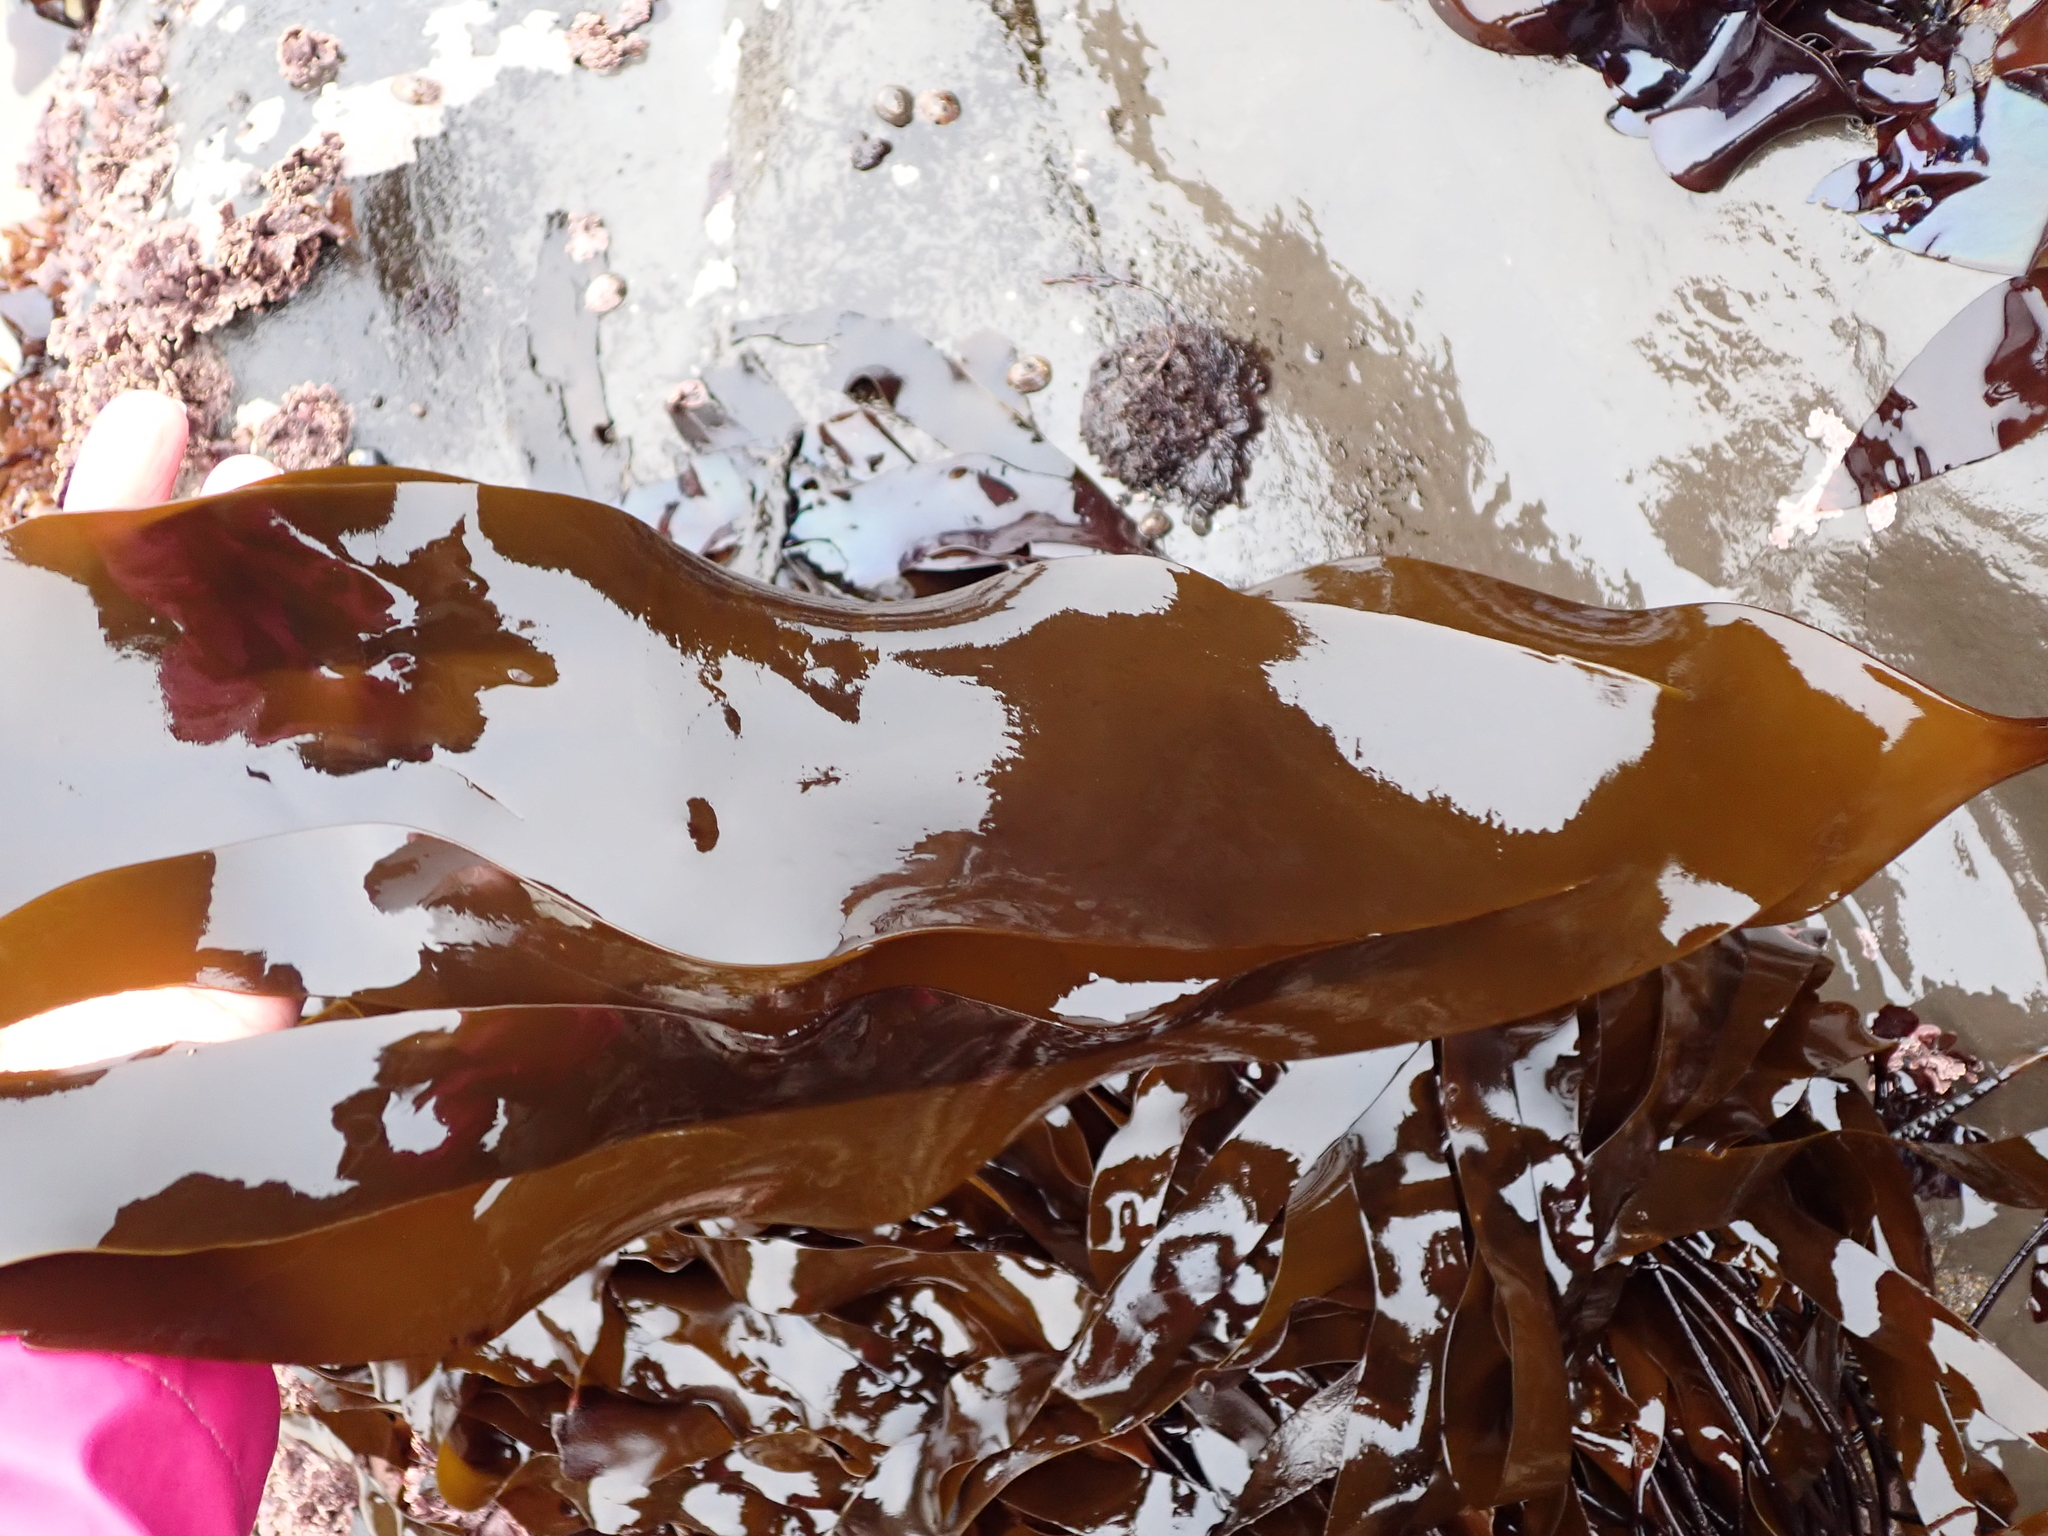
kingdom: Chromista
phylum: Ochrophyta
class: Phaeophyceae
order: Laminariales
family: Laminariaceae
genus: Laminaria
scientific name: Laminaria setchellii
